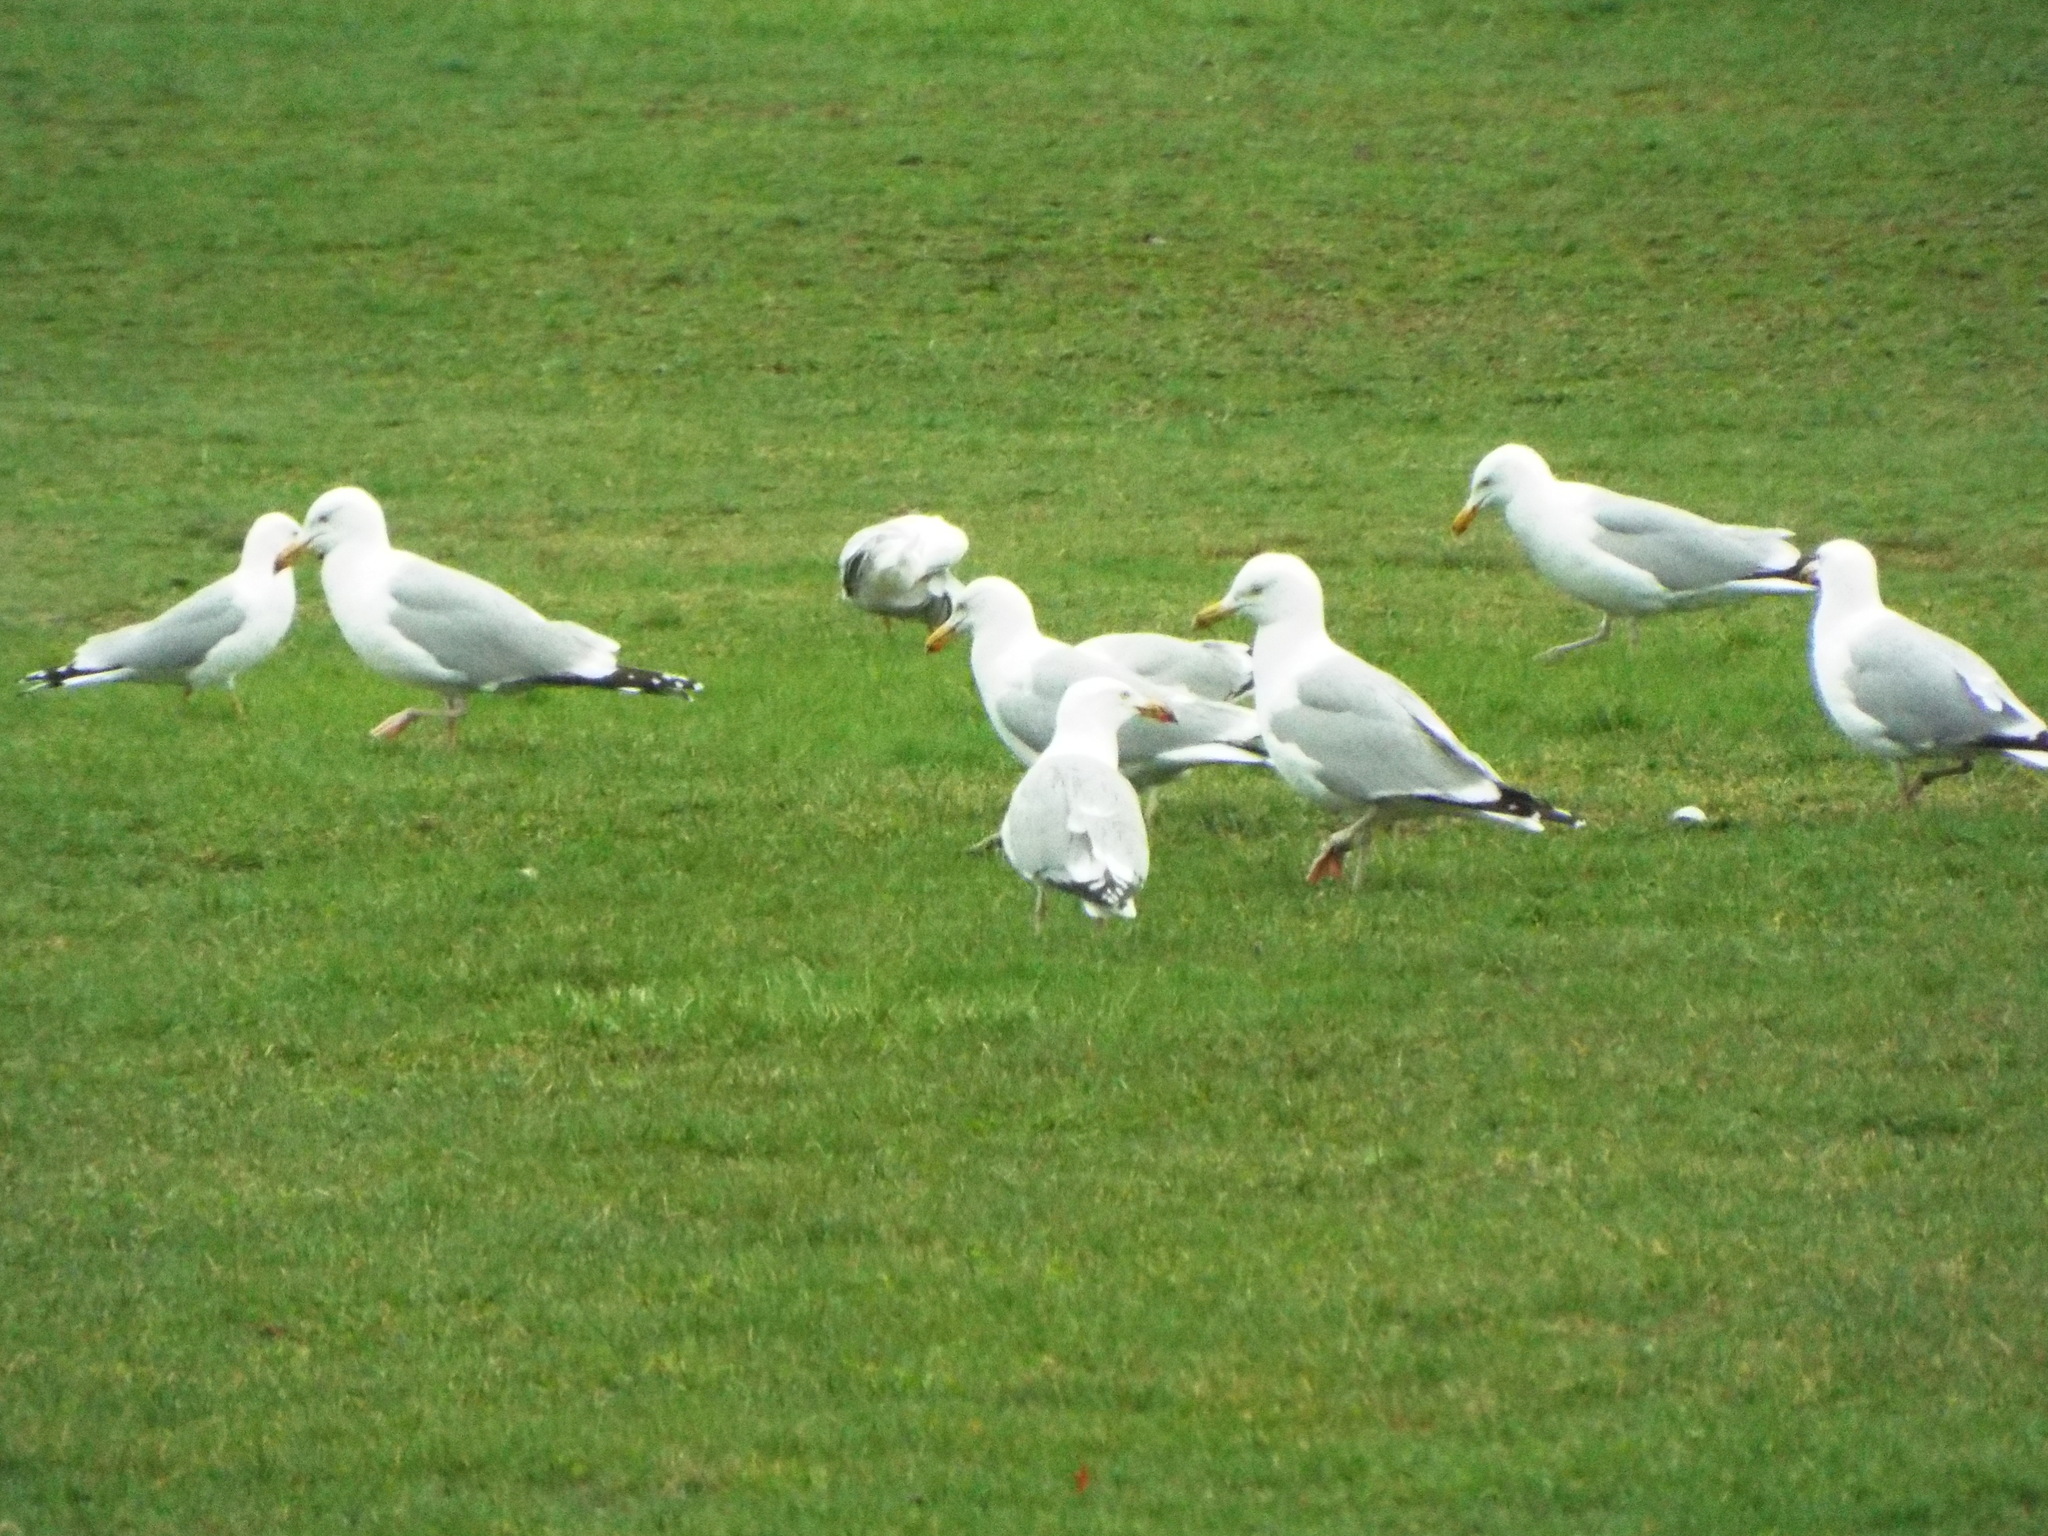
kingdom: Animalia
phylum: Chordata
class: Aves
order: Charadriiformes
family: Laridae
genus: Larus
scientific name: Larus argentatus
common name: Herring gull
